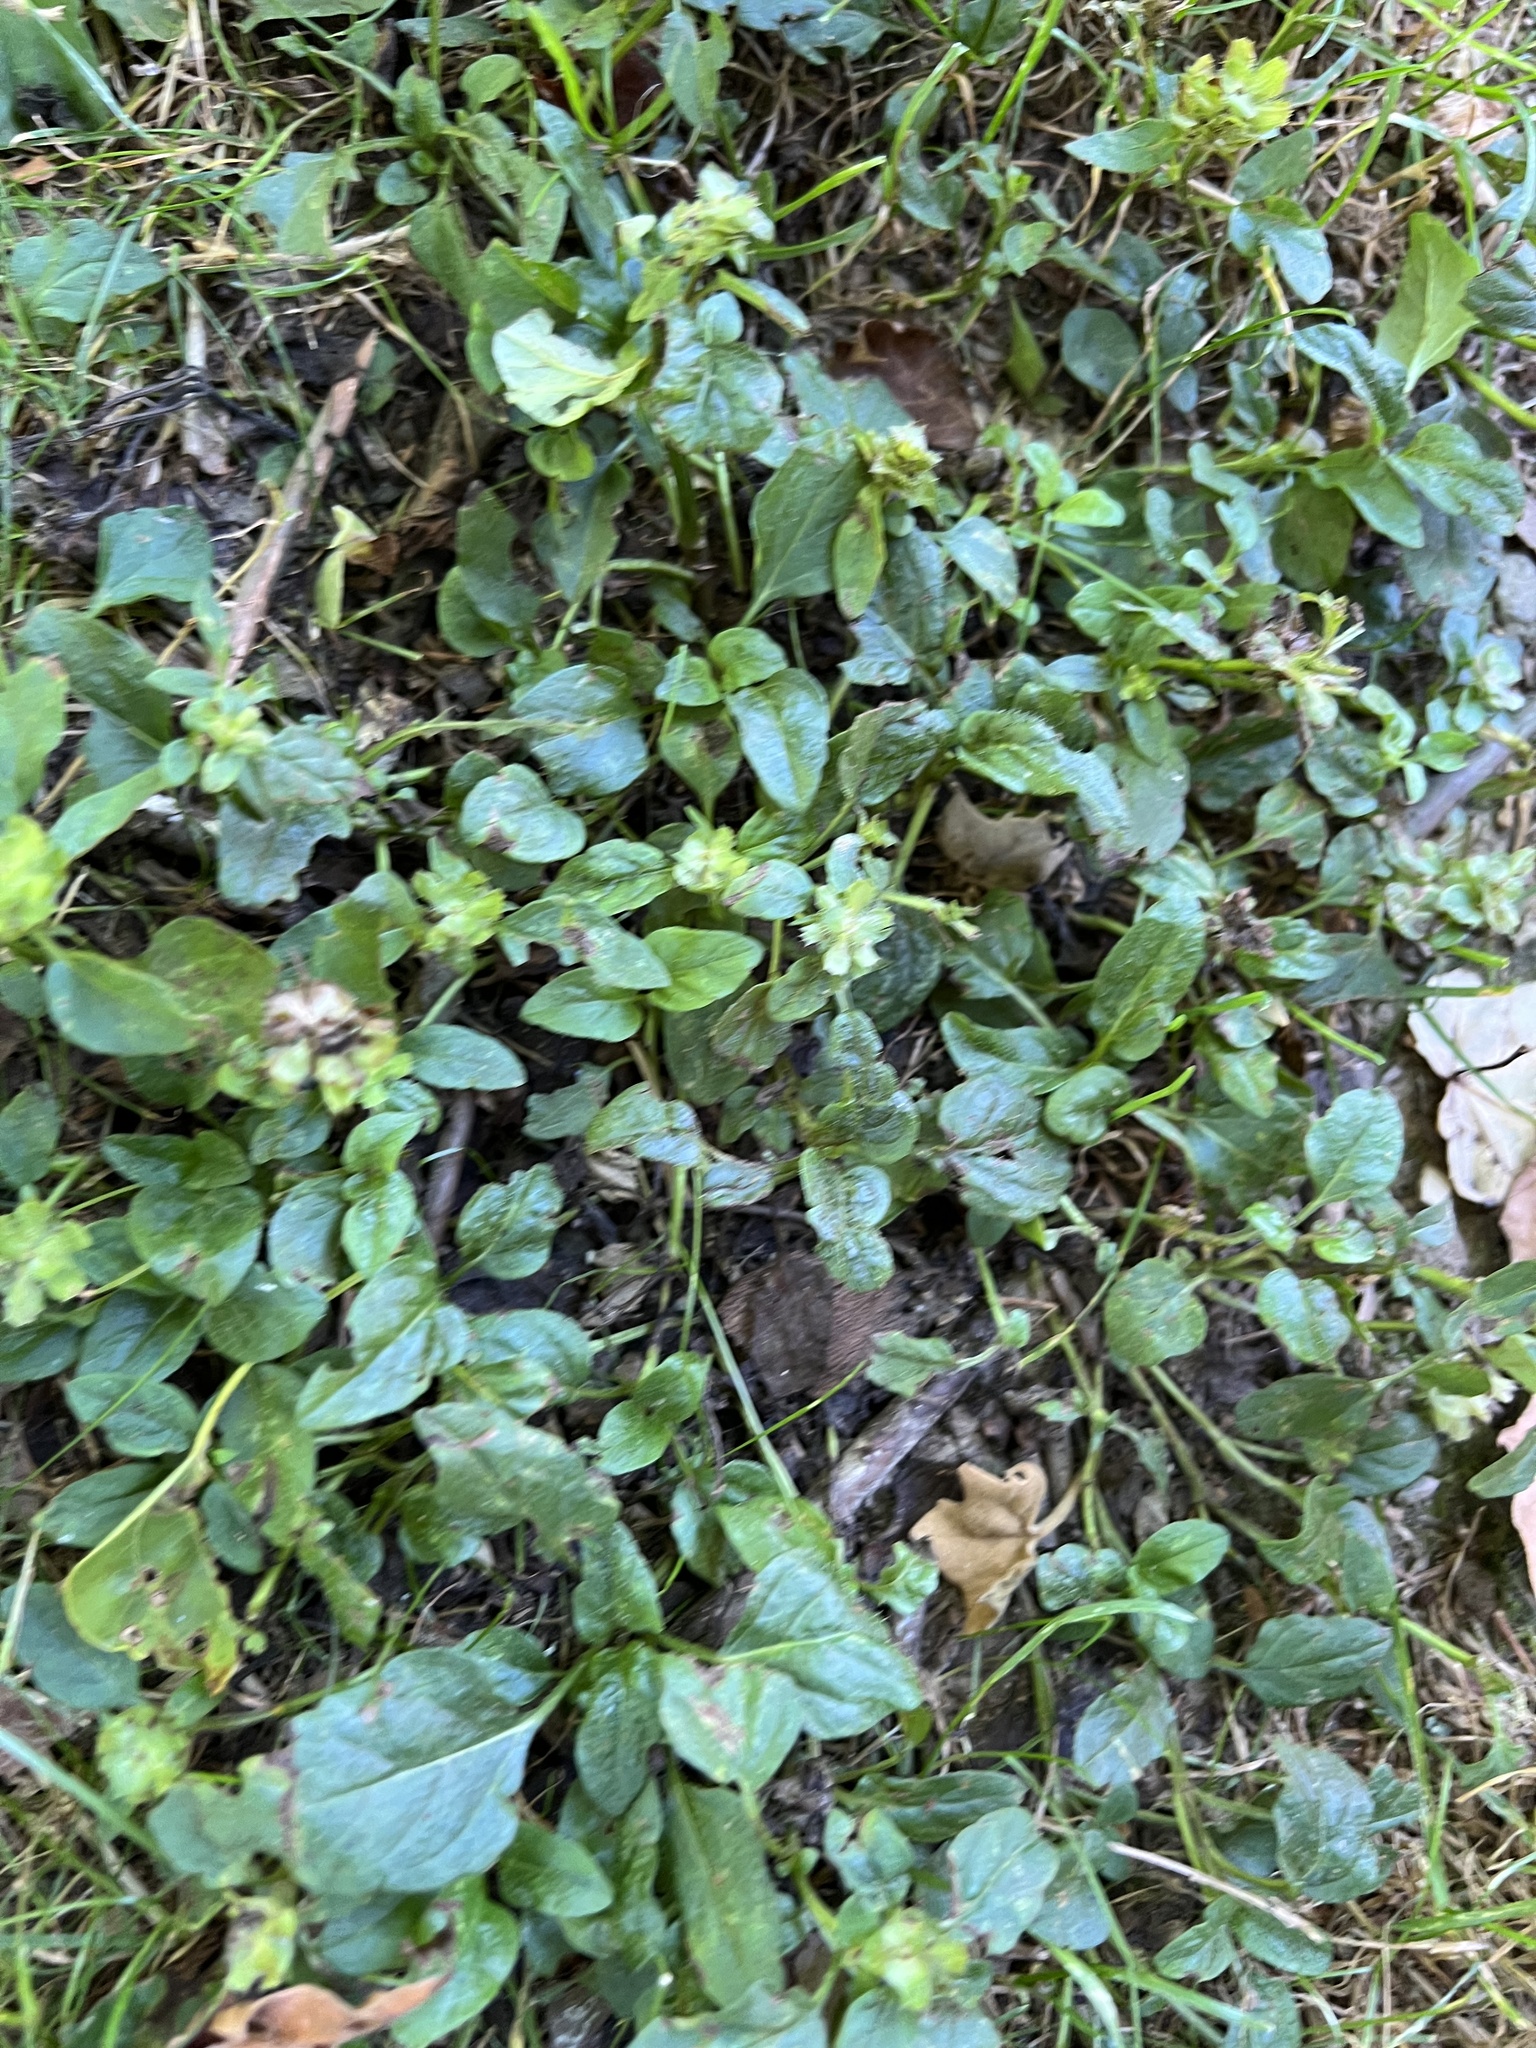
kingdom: Plantae
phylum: Tracheophyta
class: Magnoliopsida
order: Lamiales
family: Lamiaceae
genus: Prunella
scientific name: Prunella vulgaris
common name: Heal-all
